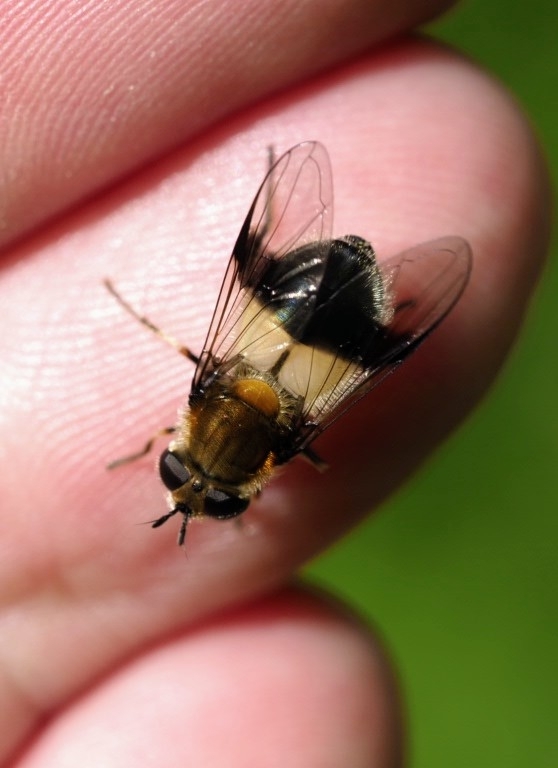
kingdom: Animalia
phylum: Arthropoda
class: Insecta
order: Diptera
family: Syrphidae
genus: Leucozona
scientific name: Leucozona lucorum
